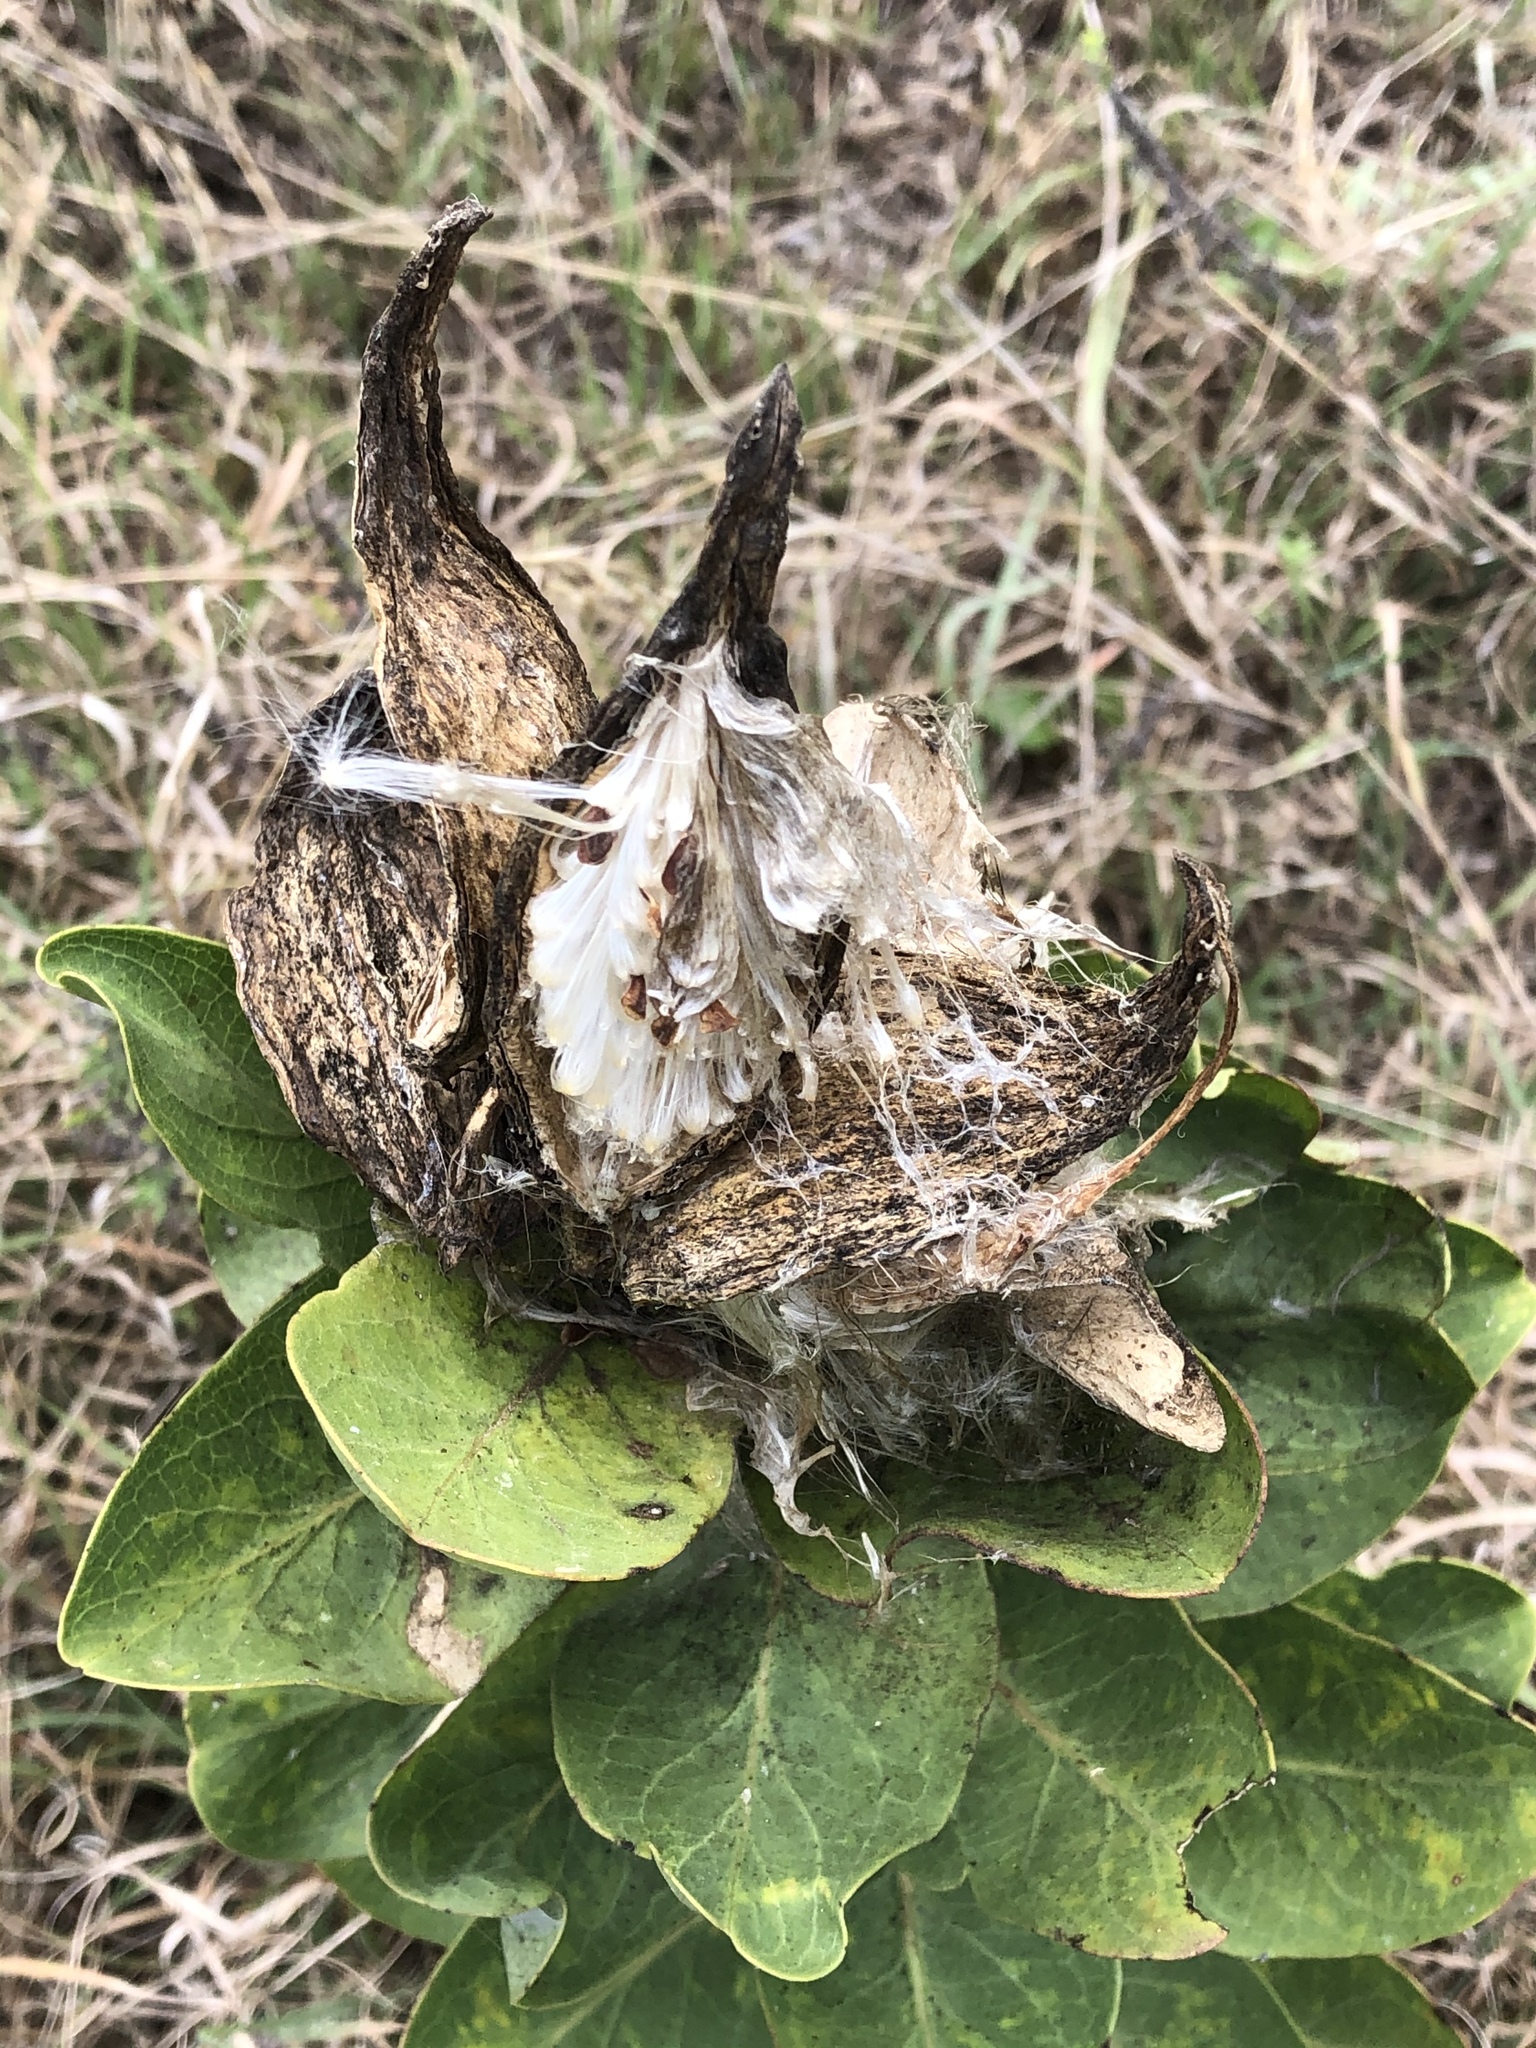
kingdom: Plantae
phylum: Tracheophyta
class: Magnoliopsida
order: Gentianales
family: Apocynaceae
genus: Asclepias
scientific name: Asclepias viridis
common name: Antelope-horns
